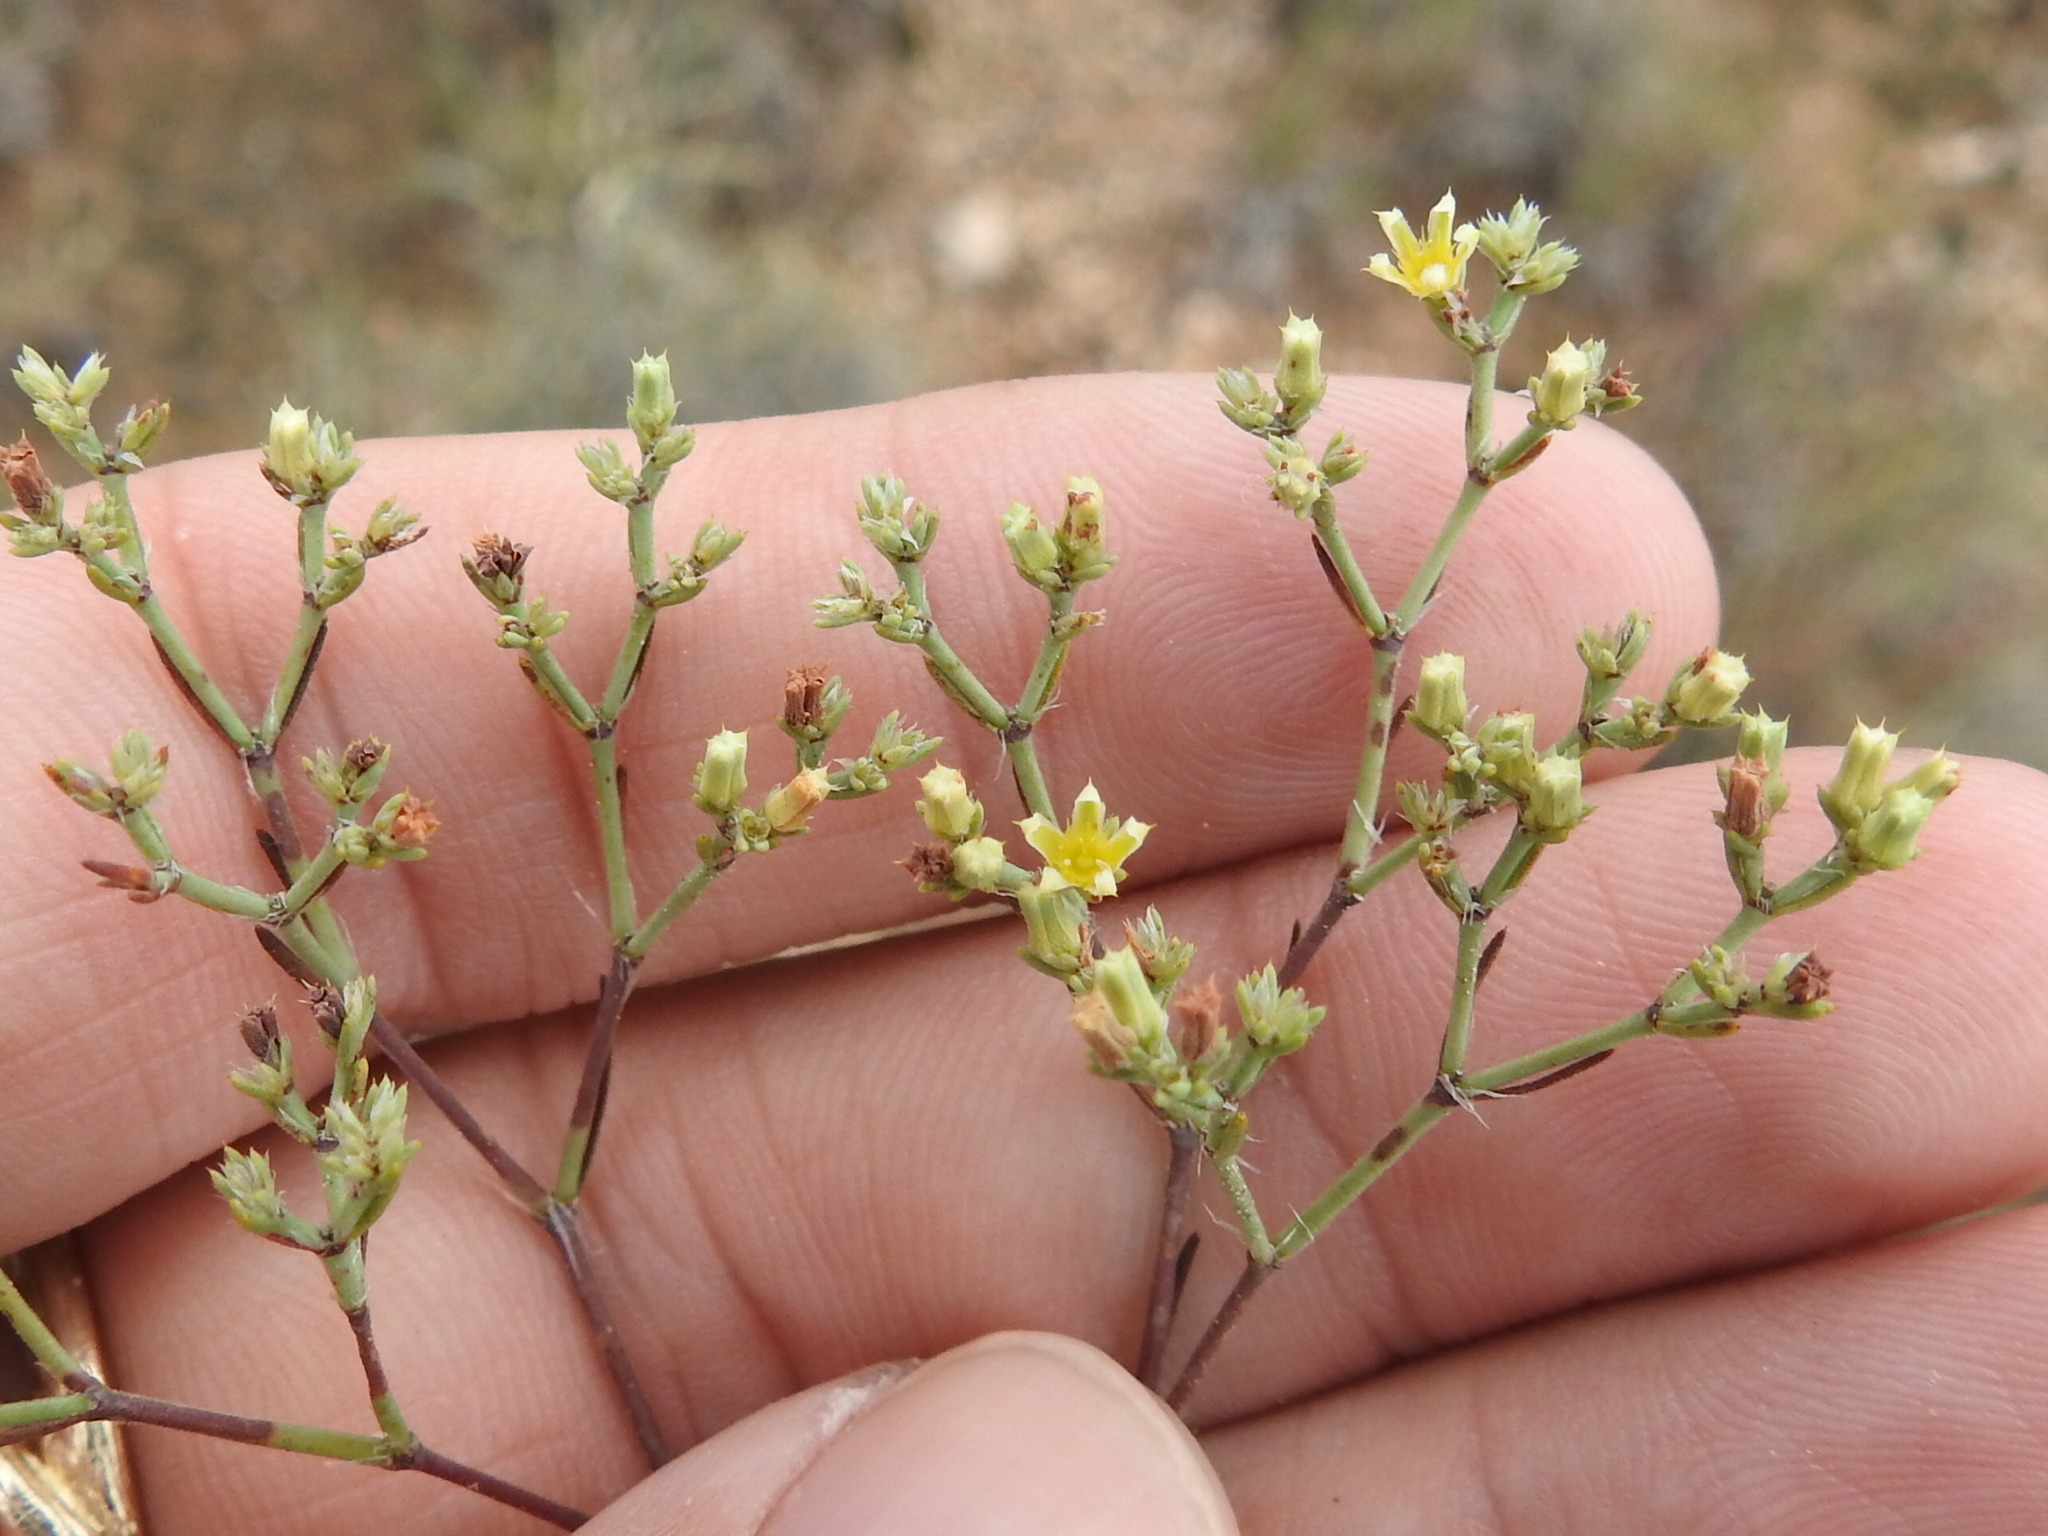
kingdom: Plantae
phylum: Tracheophyta
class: Magnoliopsida
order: Caryophyllales
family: Caryophyllaceae
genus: Paronychia
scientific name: Paronychia jamesii
